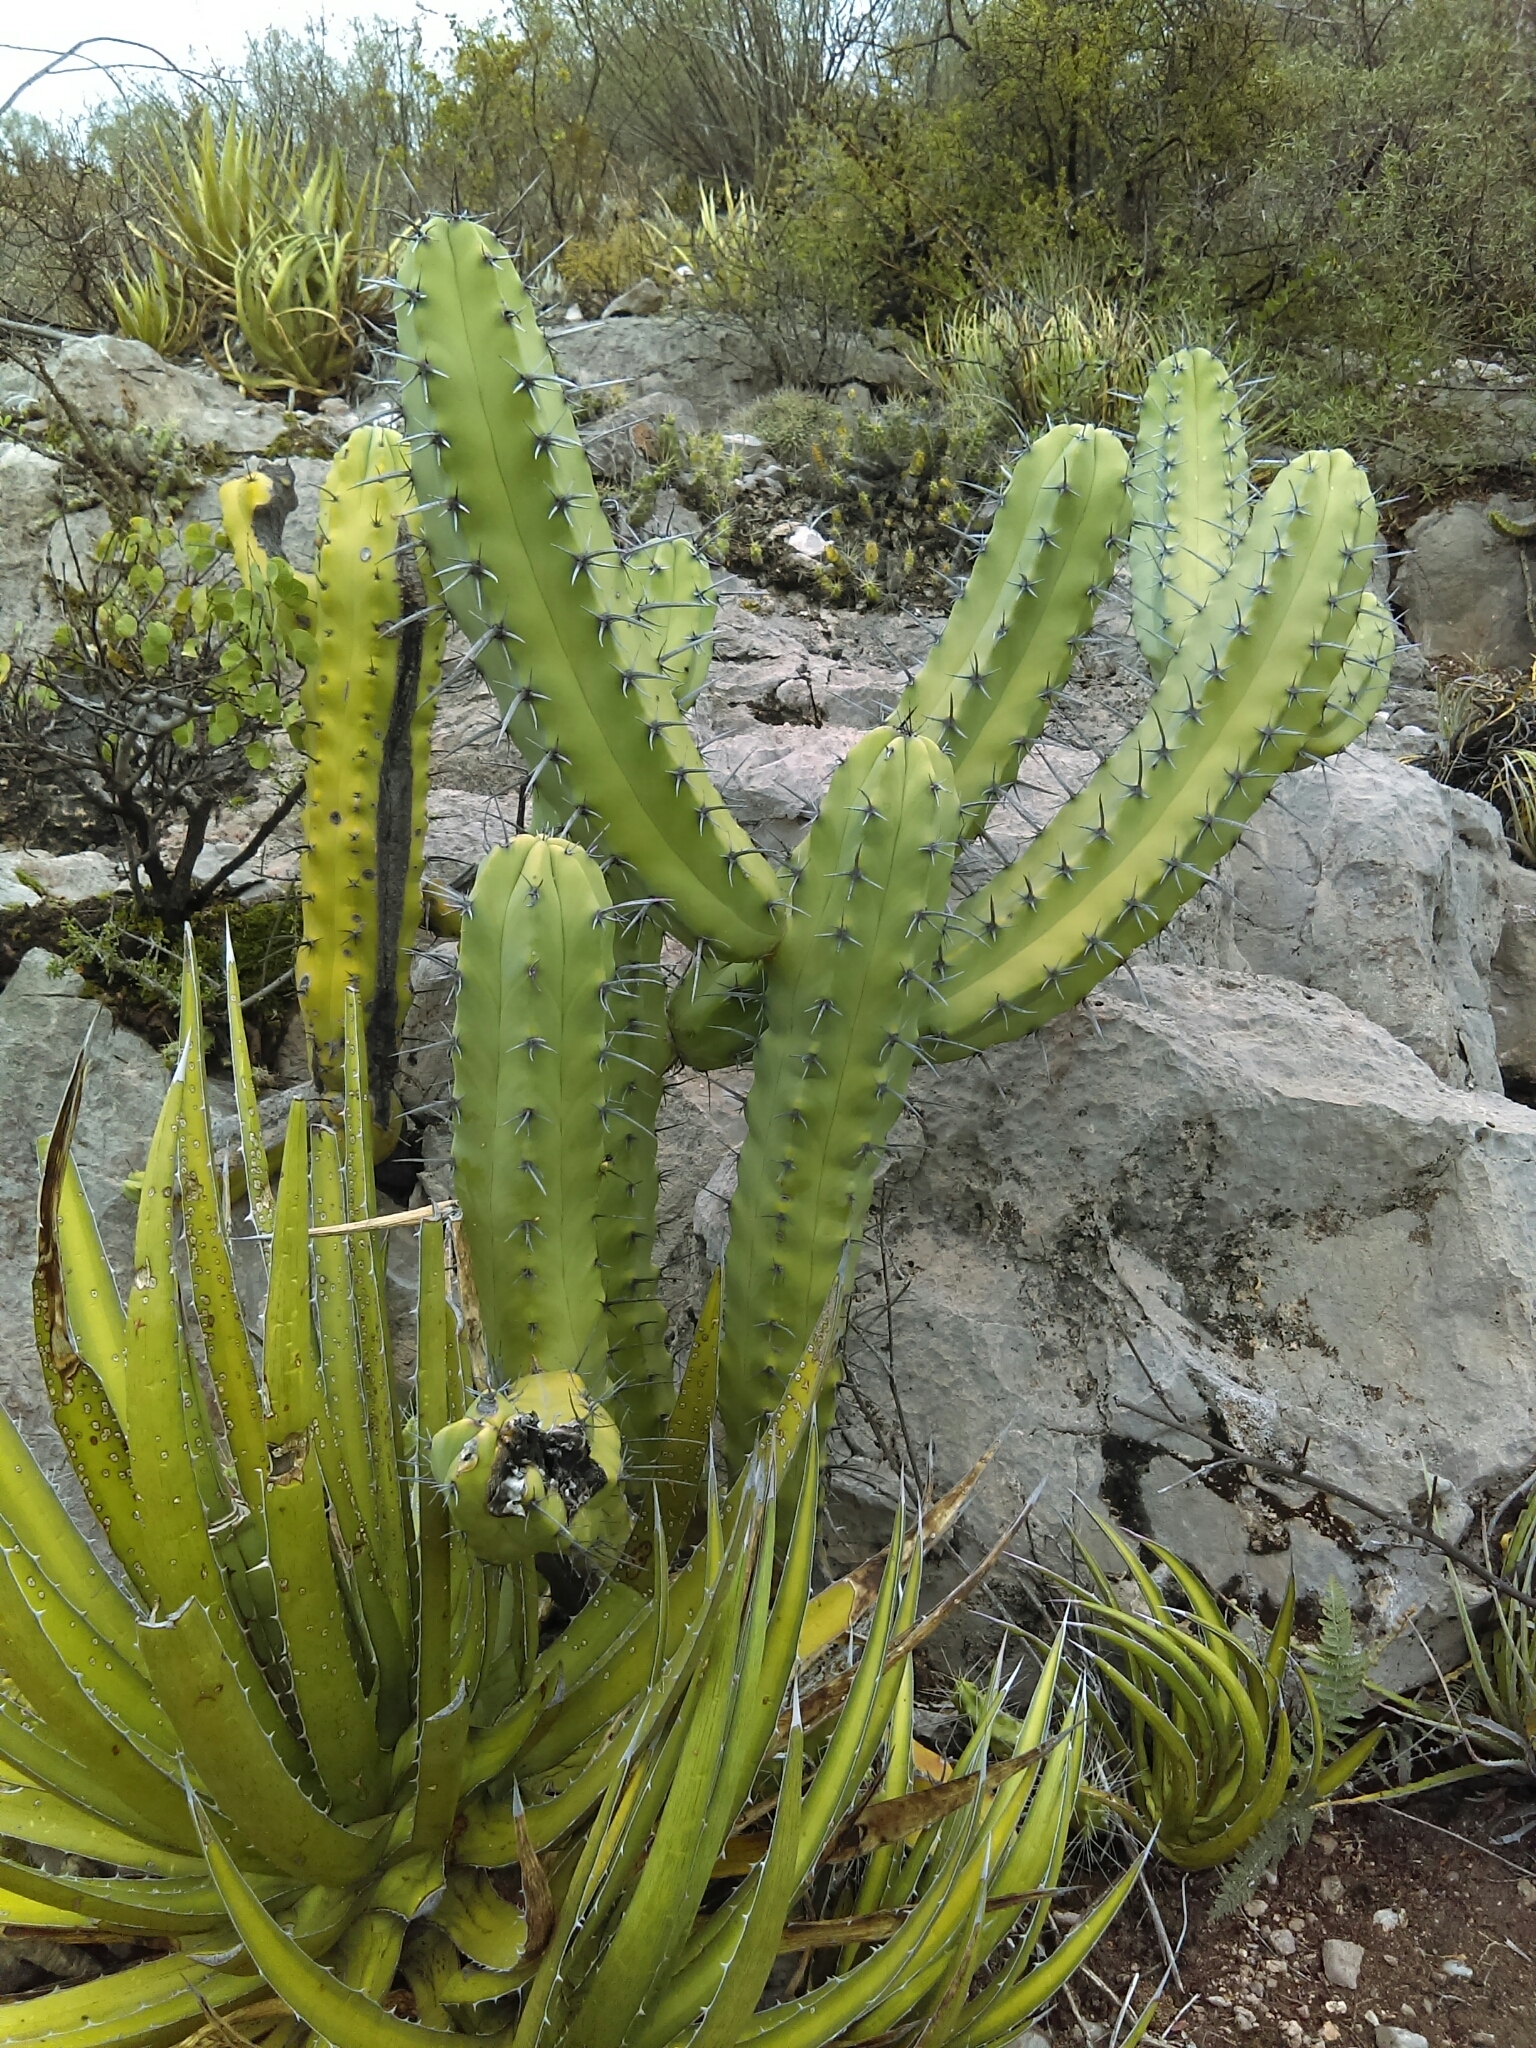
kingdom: Plantae
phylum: Tracheophyta
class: Magnoliopsida
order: Caryophyllales
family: Cactaceae
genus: Myrtillocactus
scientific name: Myrtillocactus geometrizans
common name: Bilberry cactus
